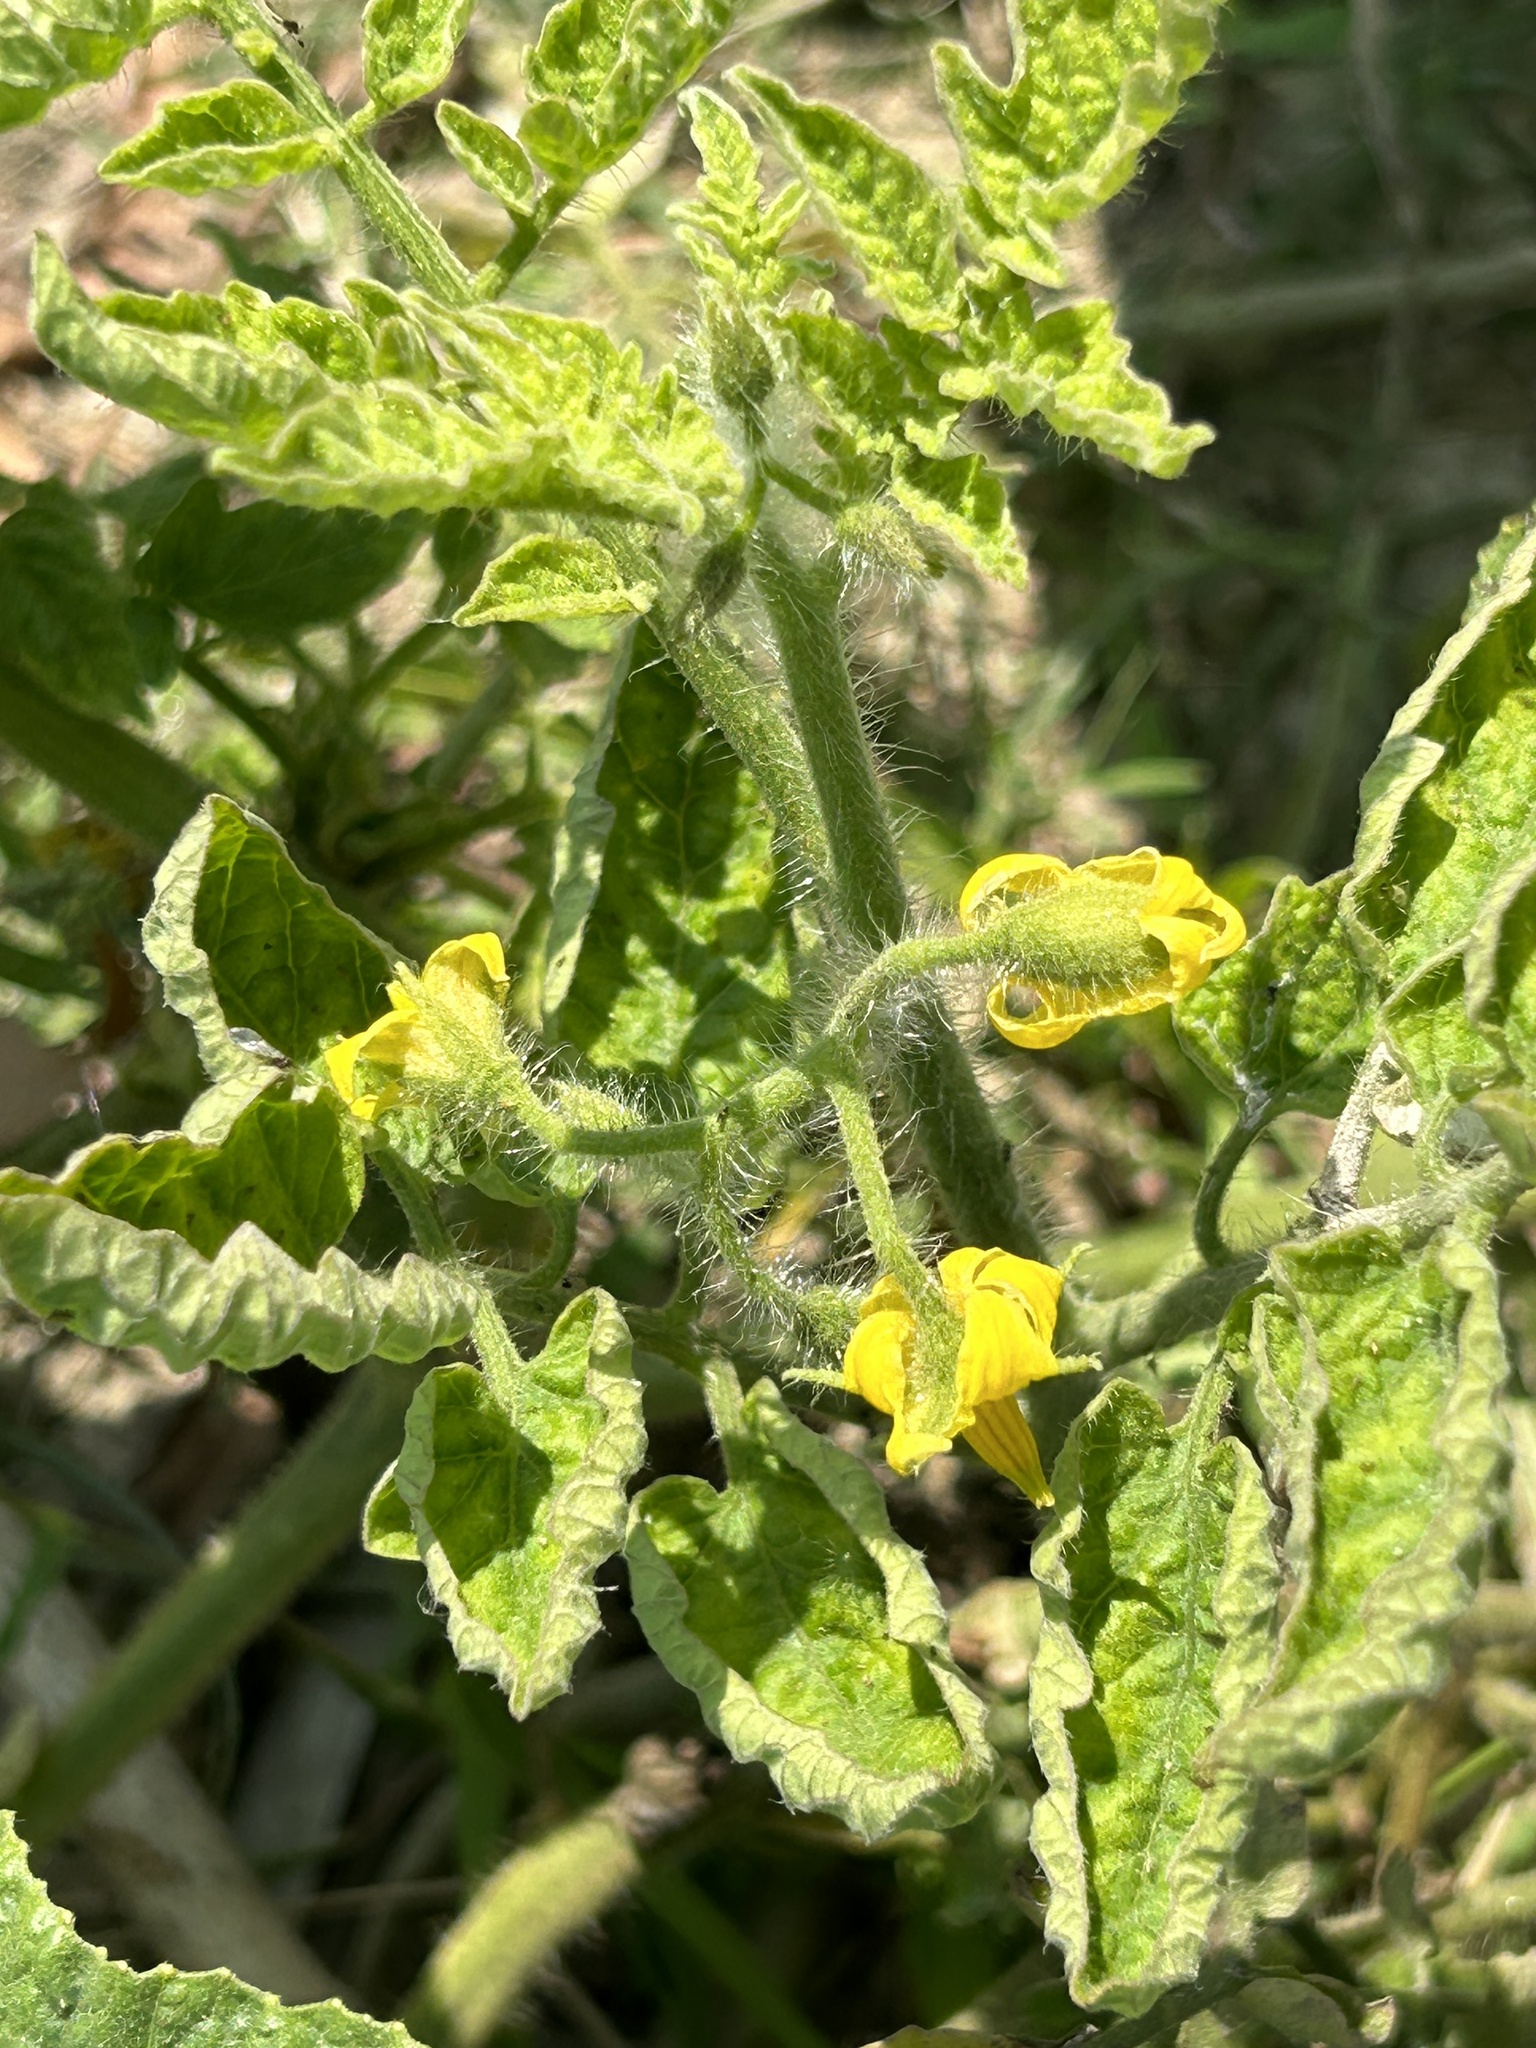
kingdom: Plantae
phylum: Tracheophyta
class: Magnoliopsida
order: Solanales
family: Solanaceae
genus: Solanum
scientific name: Solanum lycopersicum
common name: Garden tomato
